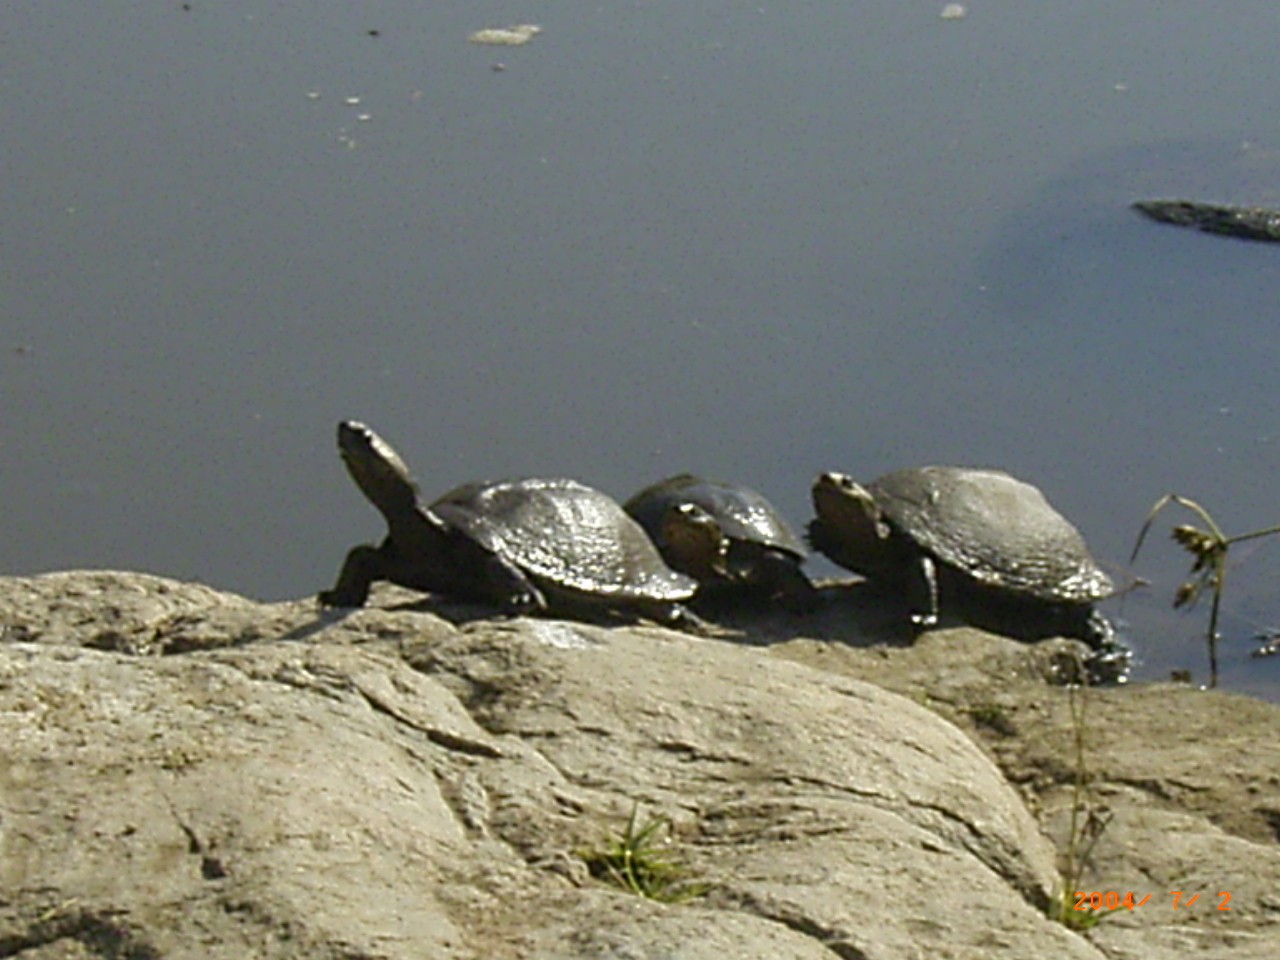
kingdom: Animalia
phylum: Chordata
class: Testudines
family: Pelomedusidae
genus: Pelusios
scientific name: Pelusios sinuatus
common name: Serrated hinged terrapin
